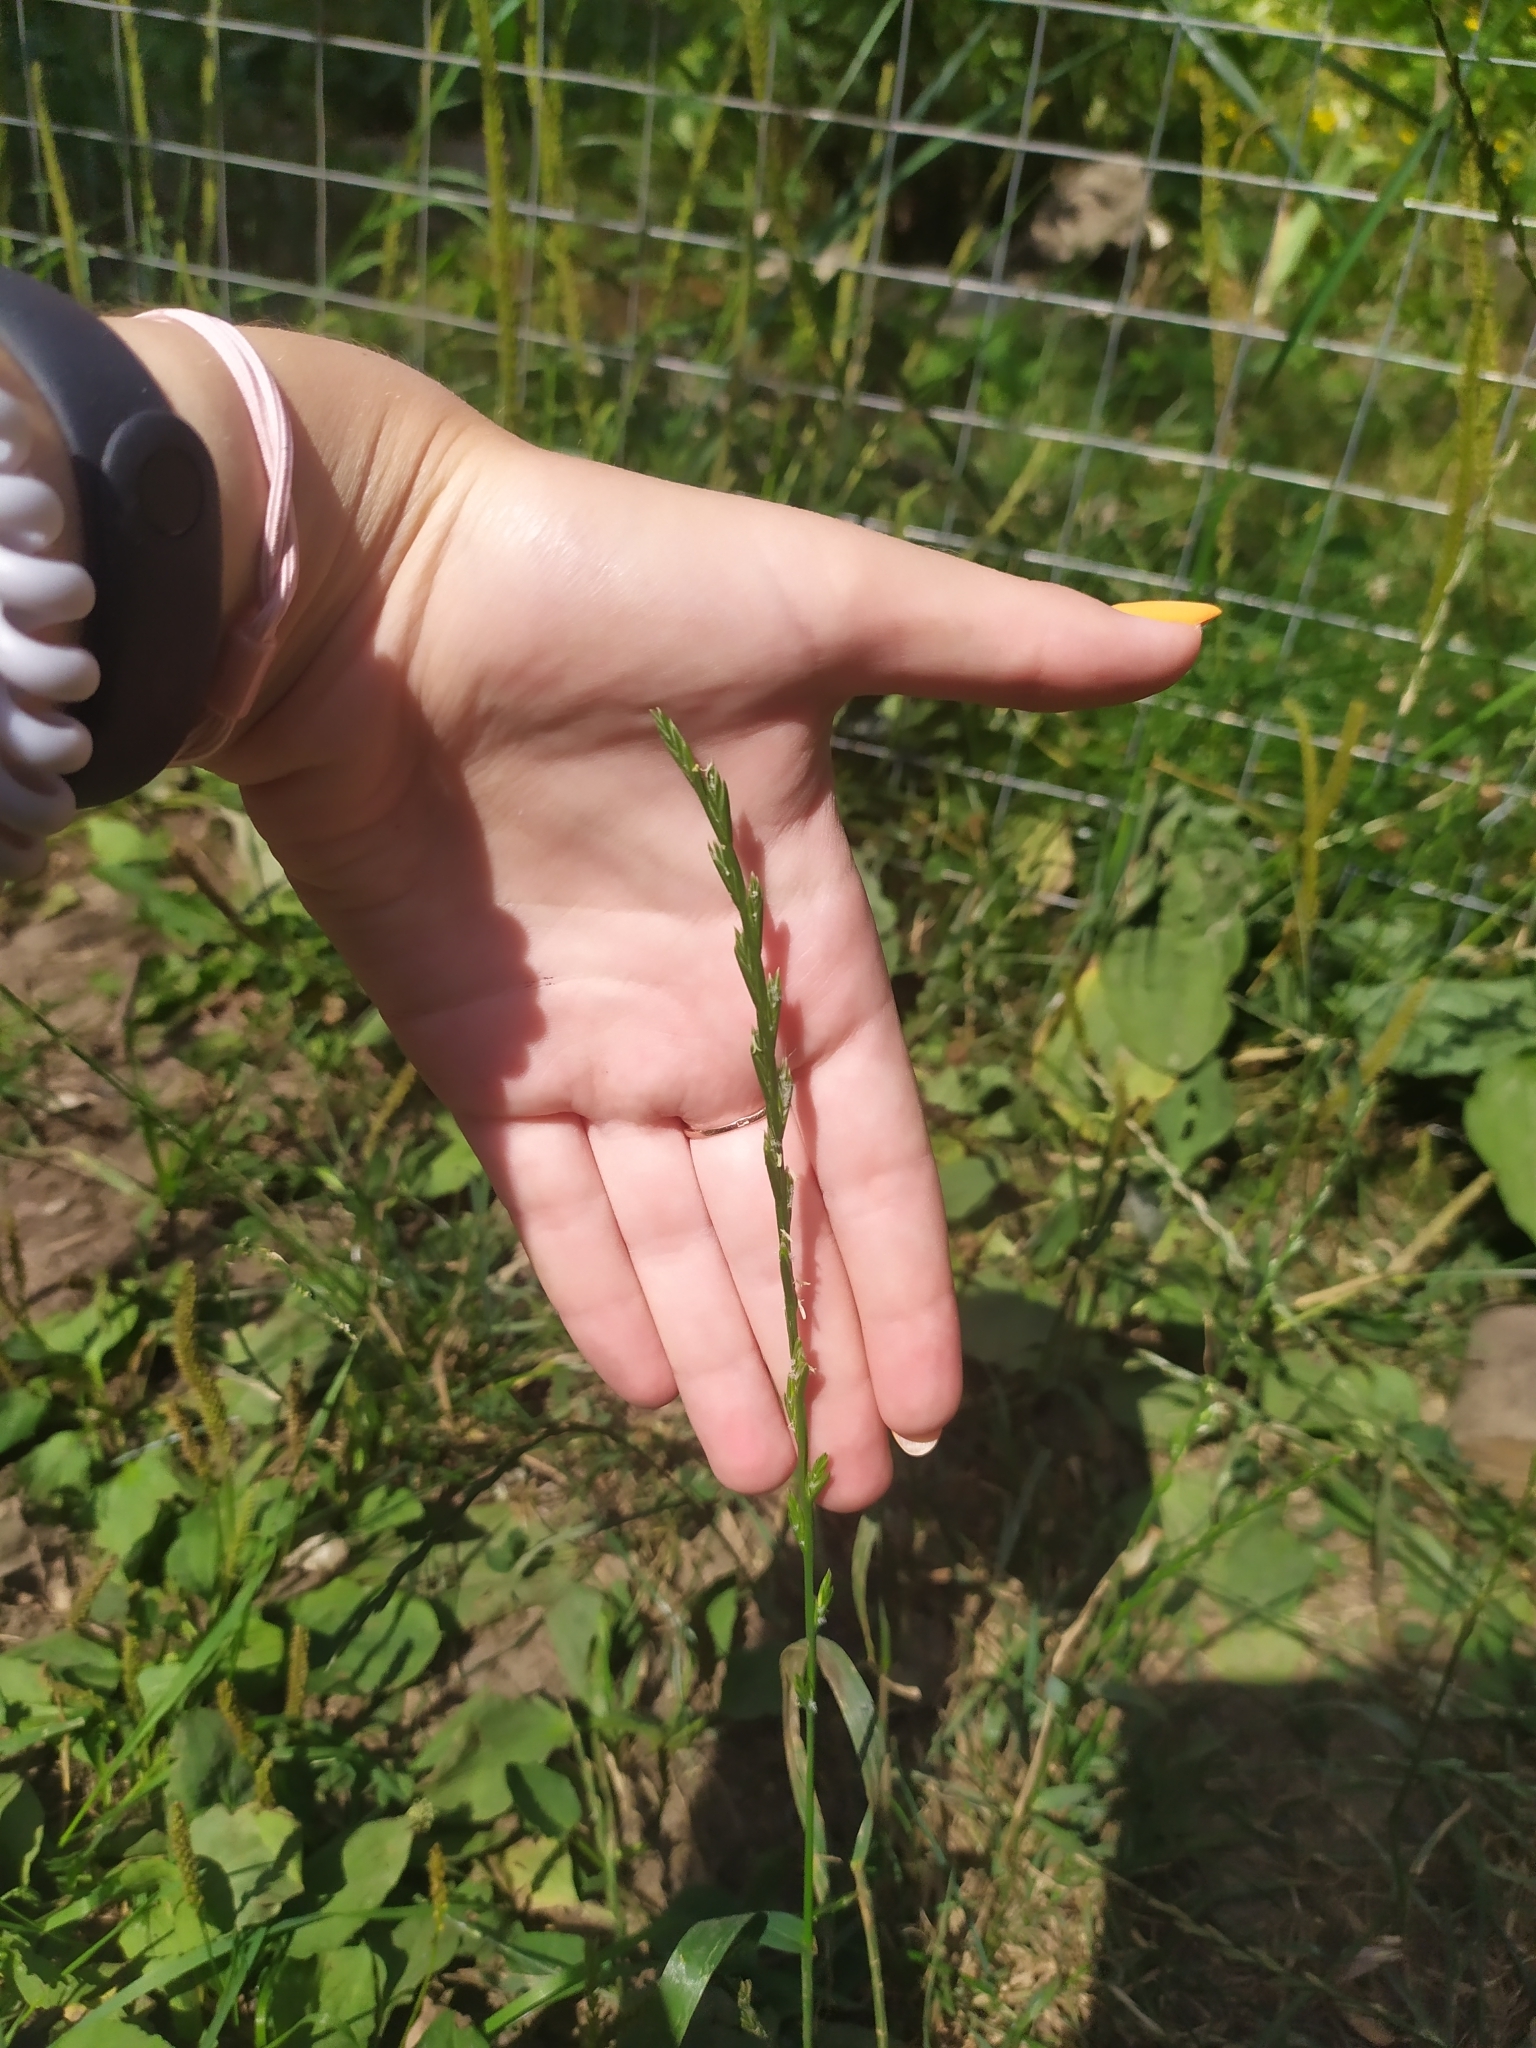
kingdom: Plantae
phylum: Tracheophyta
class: Liliopsida
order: Poales
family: Poaceae
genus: Lolium
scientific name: Lolium perenne
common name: Perennial ryegrass
